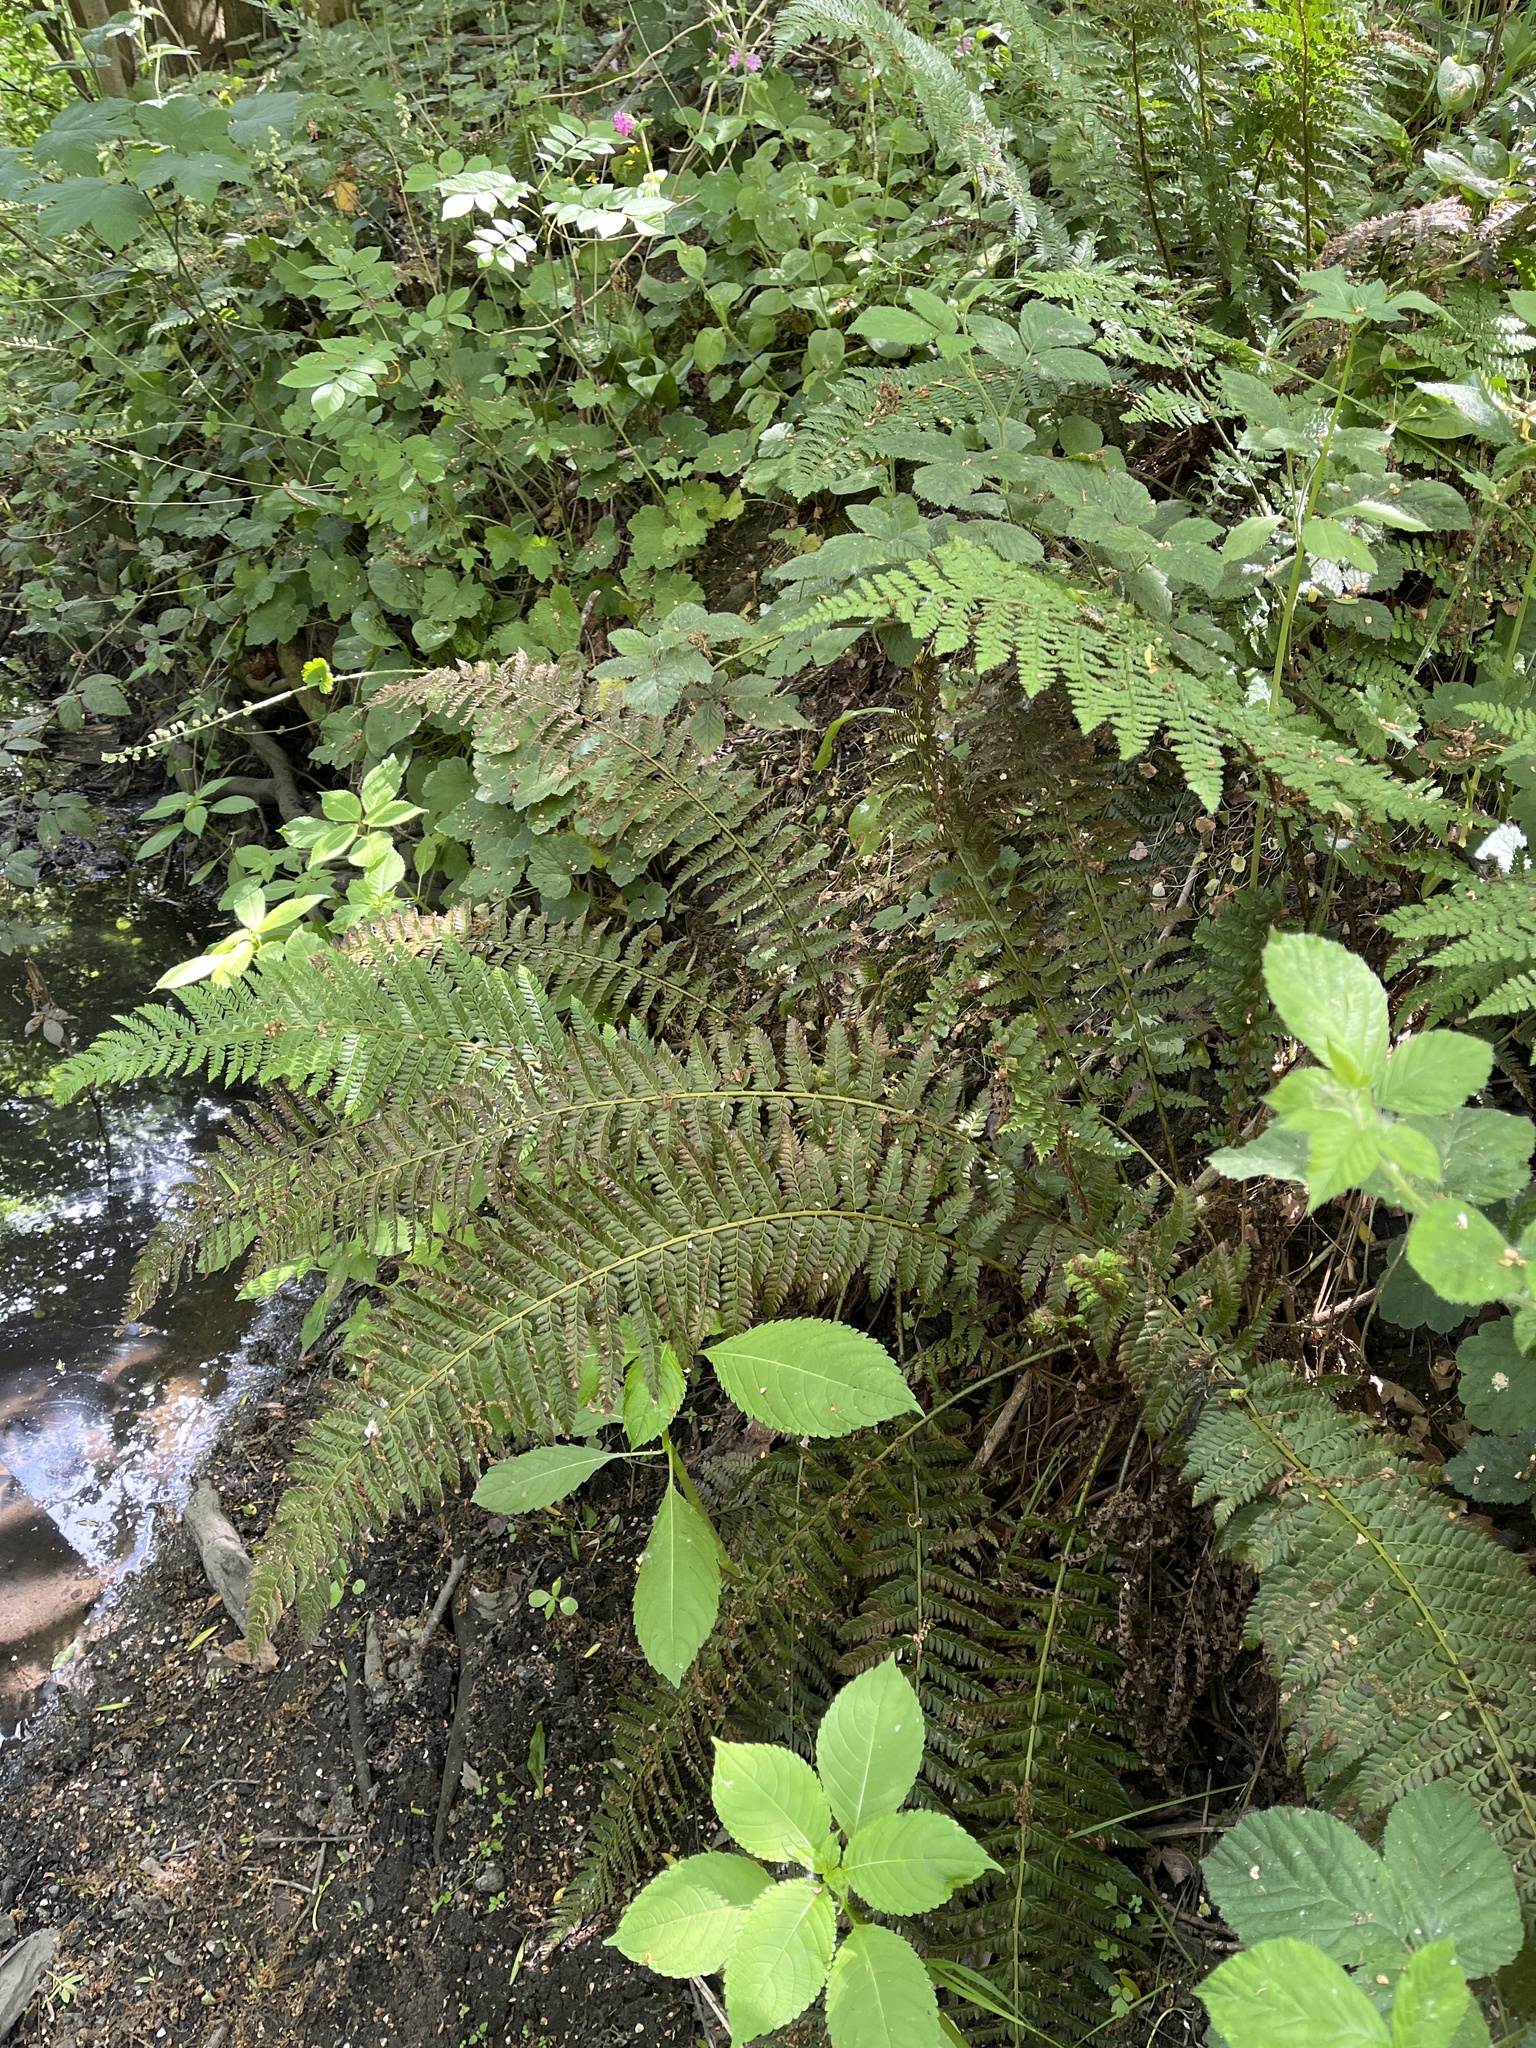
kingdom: Plantae
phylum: Tracheophyta
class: Polypodiopsida
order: Polypodiales
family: Dryopteridaceae
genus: Polystichum
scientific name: Polystichum aculeatum
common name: Hard shield-fern
